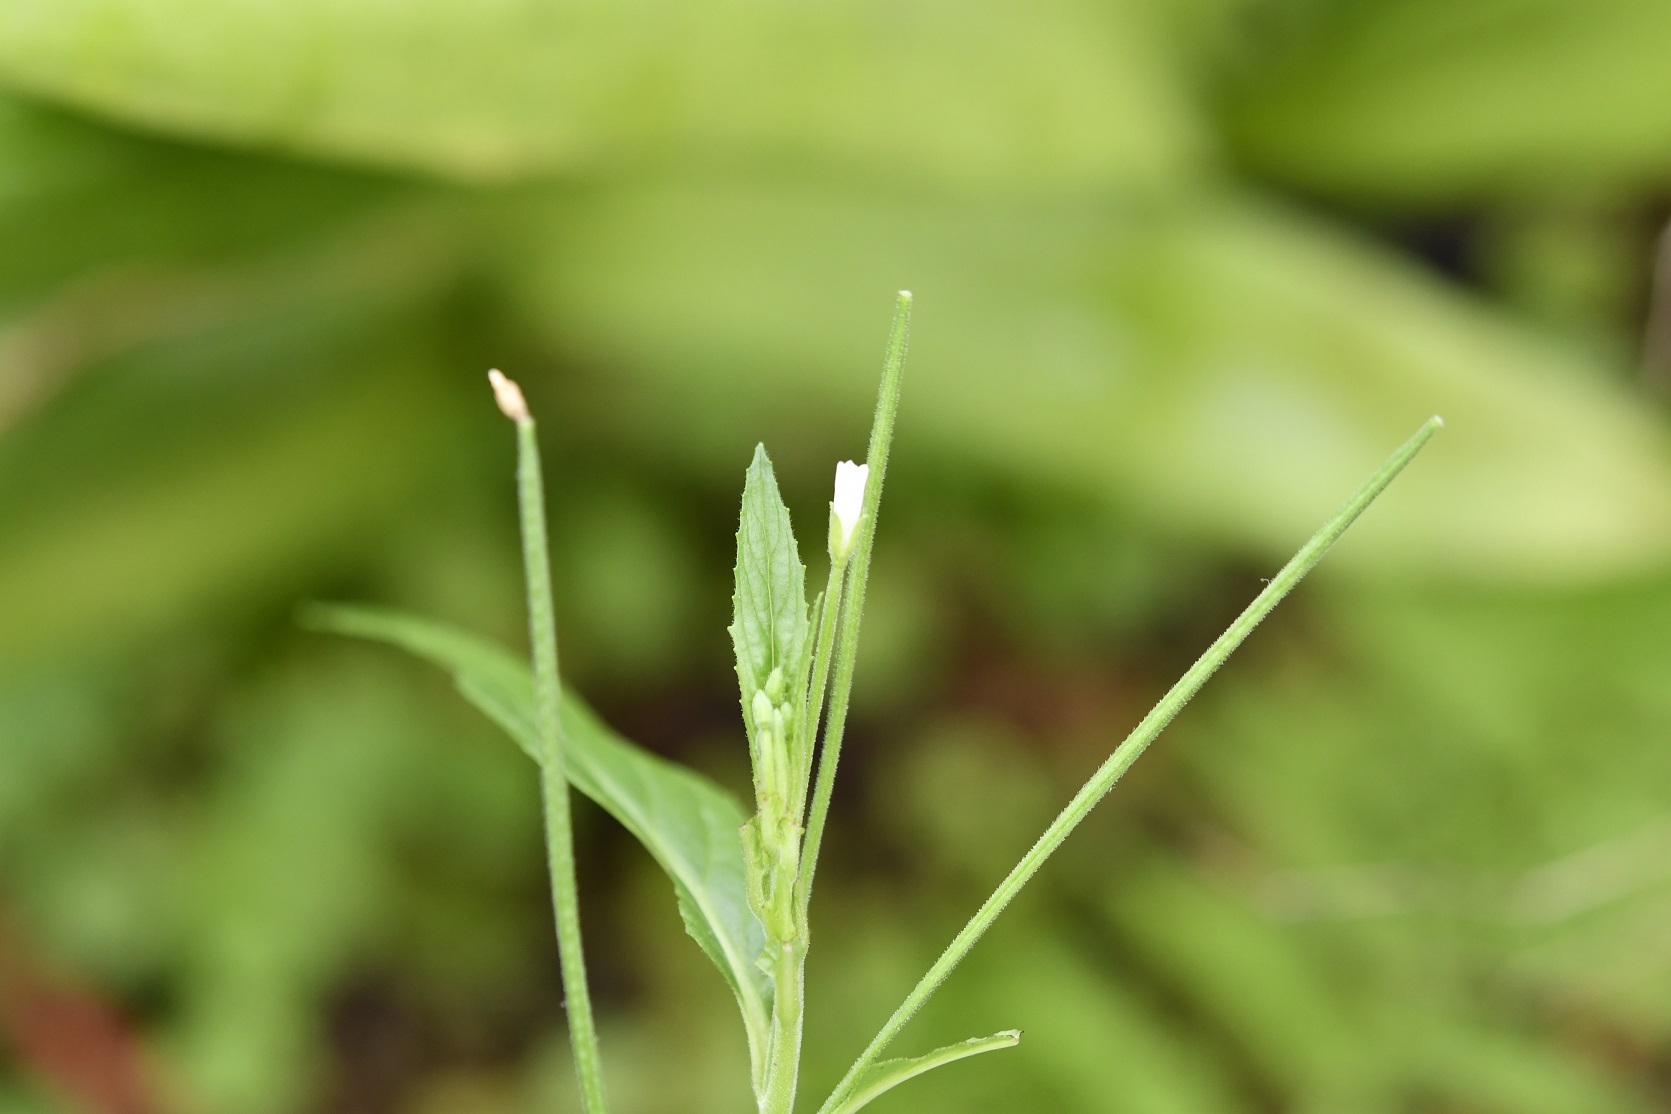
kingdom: Plantae
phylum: Tracheophyta
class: Magnoliopsida
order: Myrtales
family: Onagraceae
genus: Epilobium
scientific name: Epilobium ciliatum
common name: American willowherb
